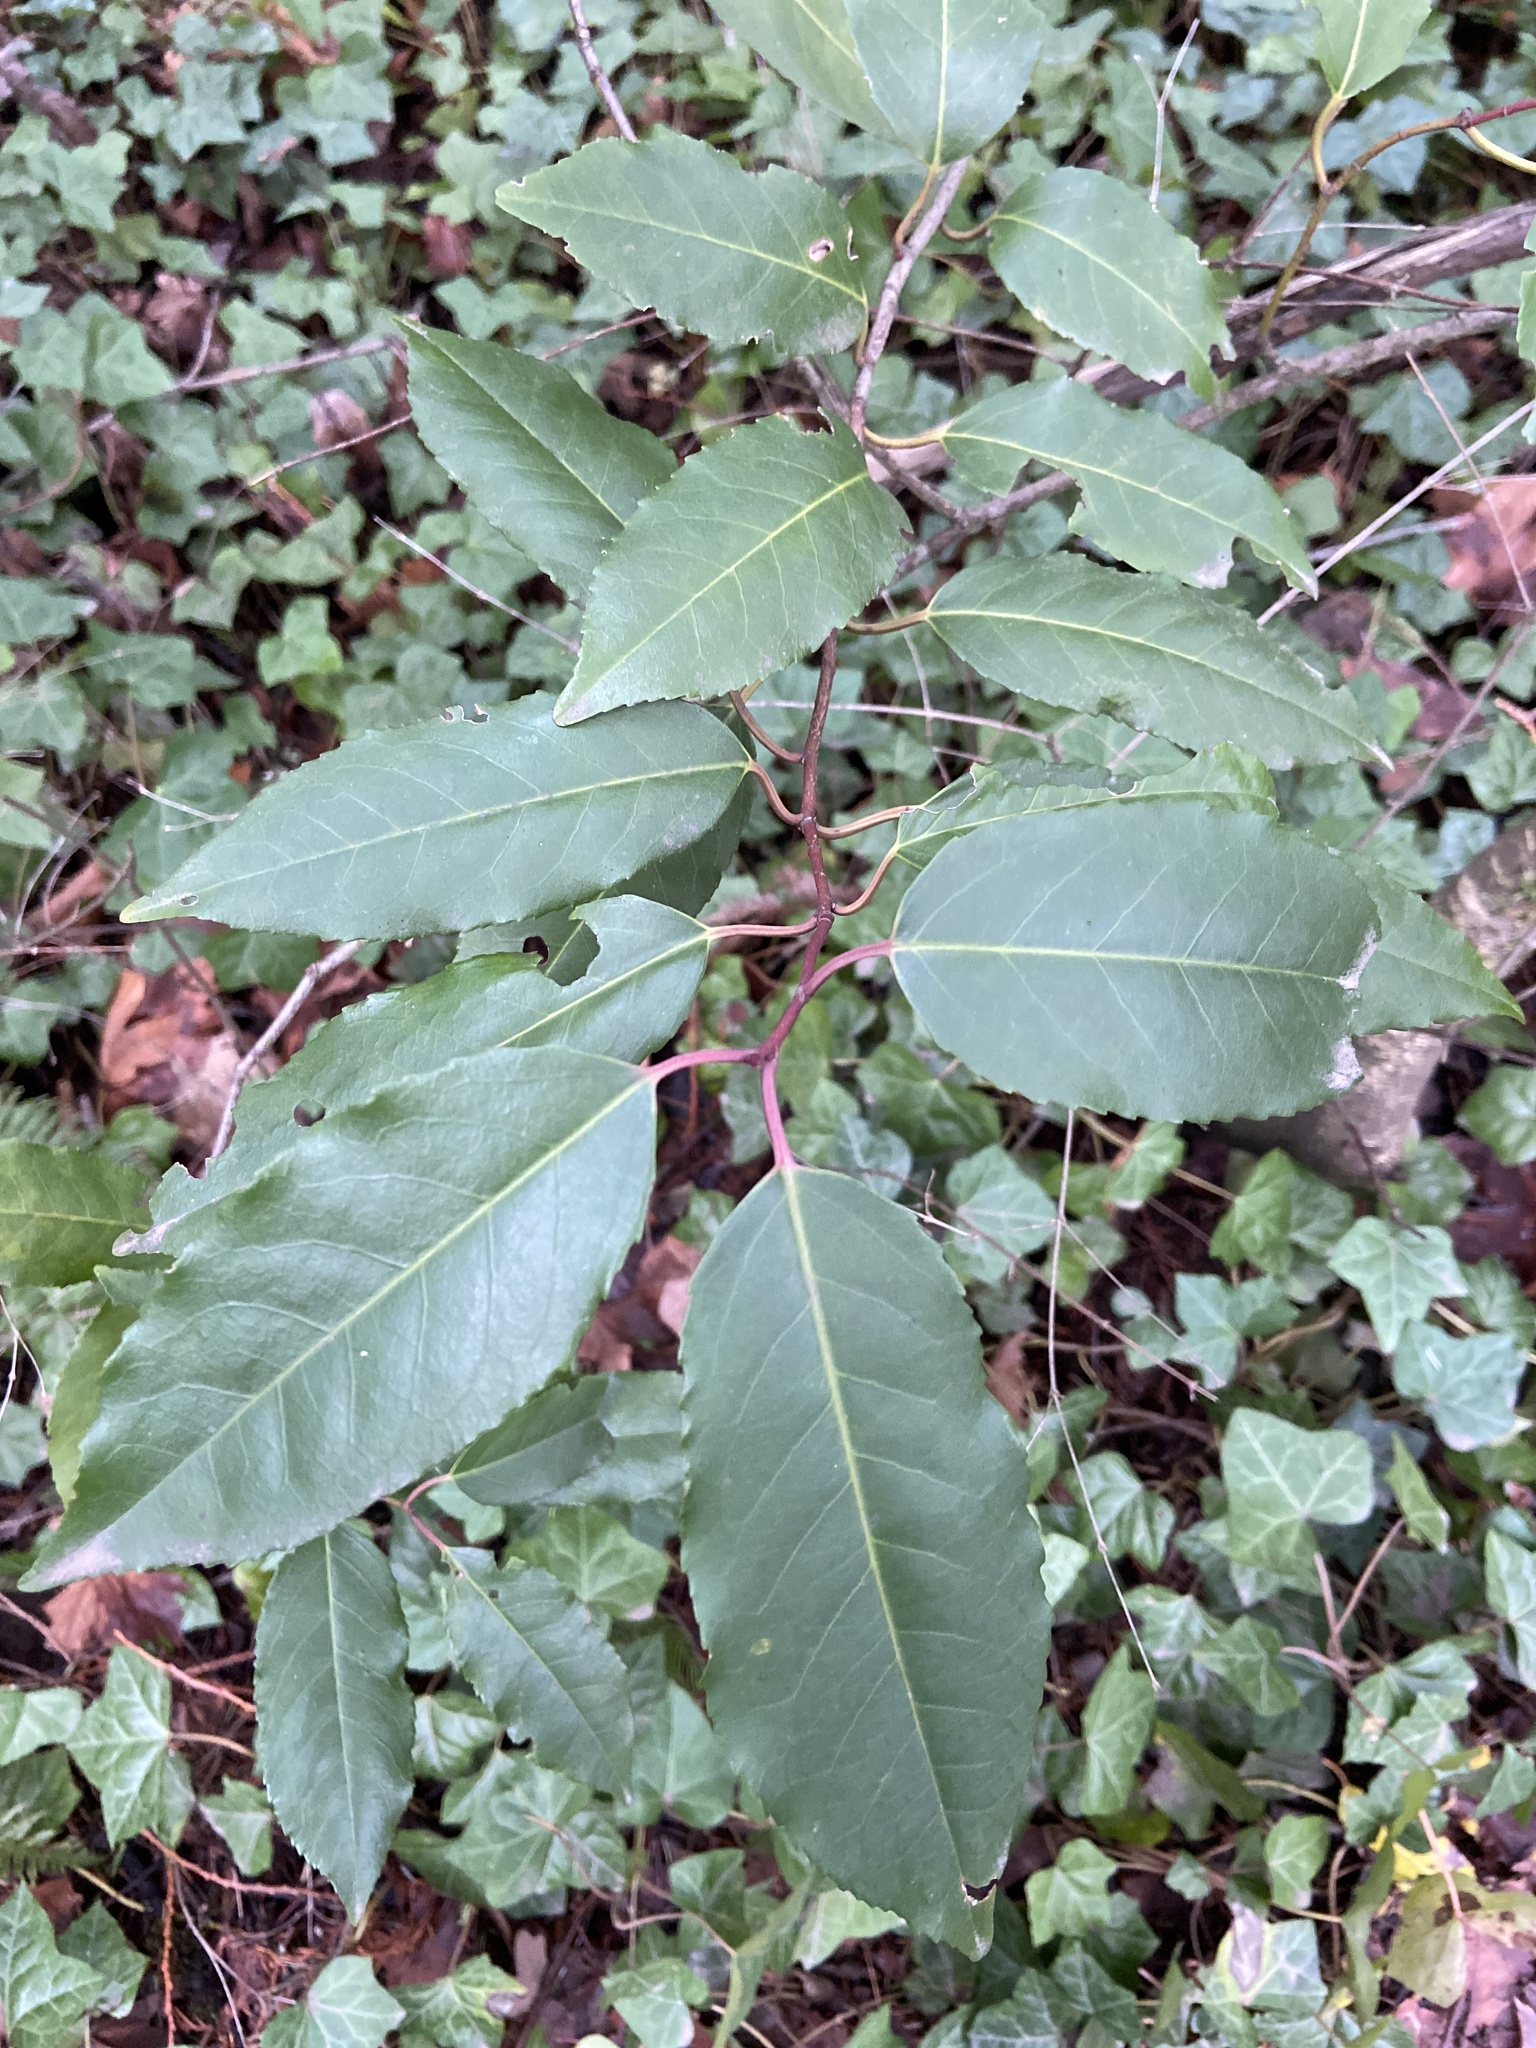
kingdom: Plantae
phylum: Tracheophyta
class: Magnoliopsida
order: Rosales
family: Rosaceae
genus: Prunus
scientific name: Prunus lusitanica
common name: Portugal laurel
